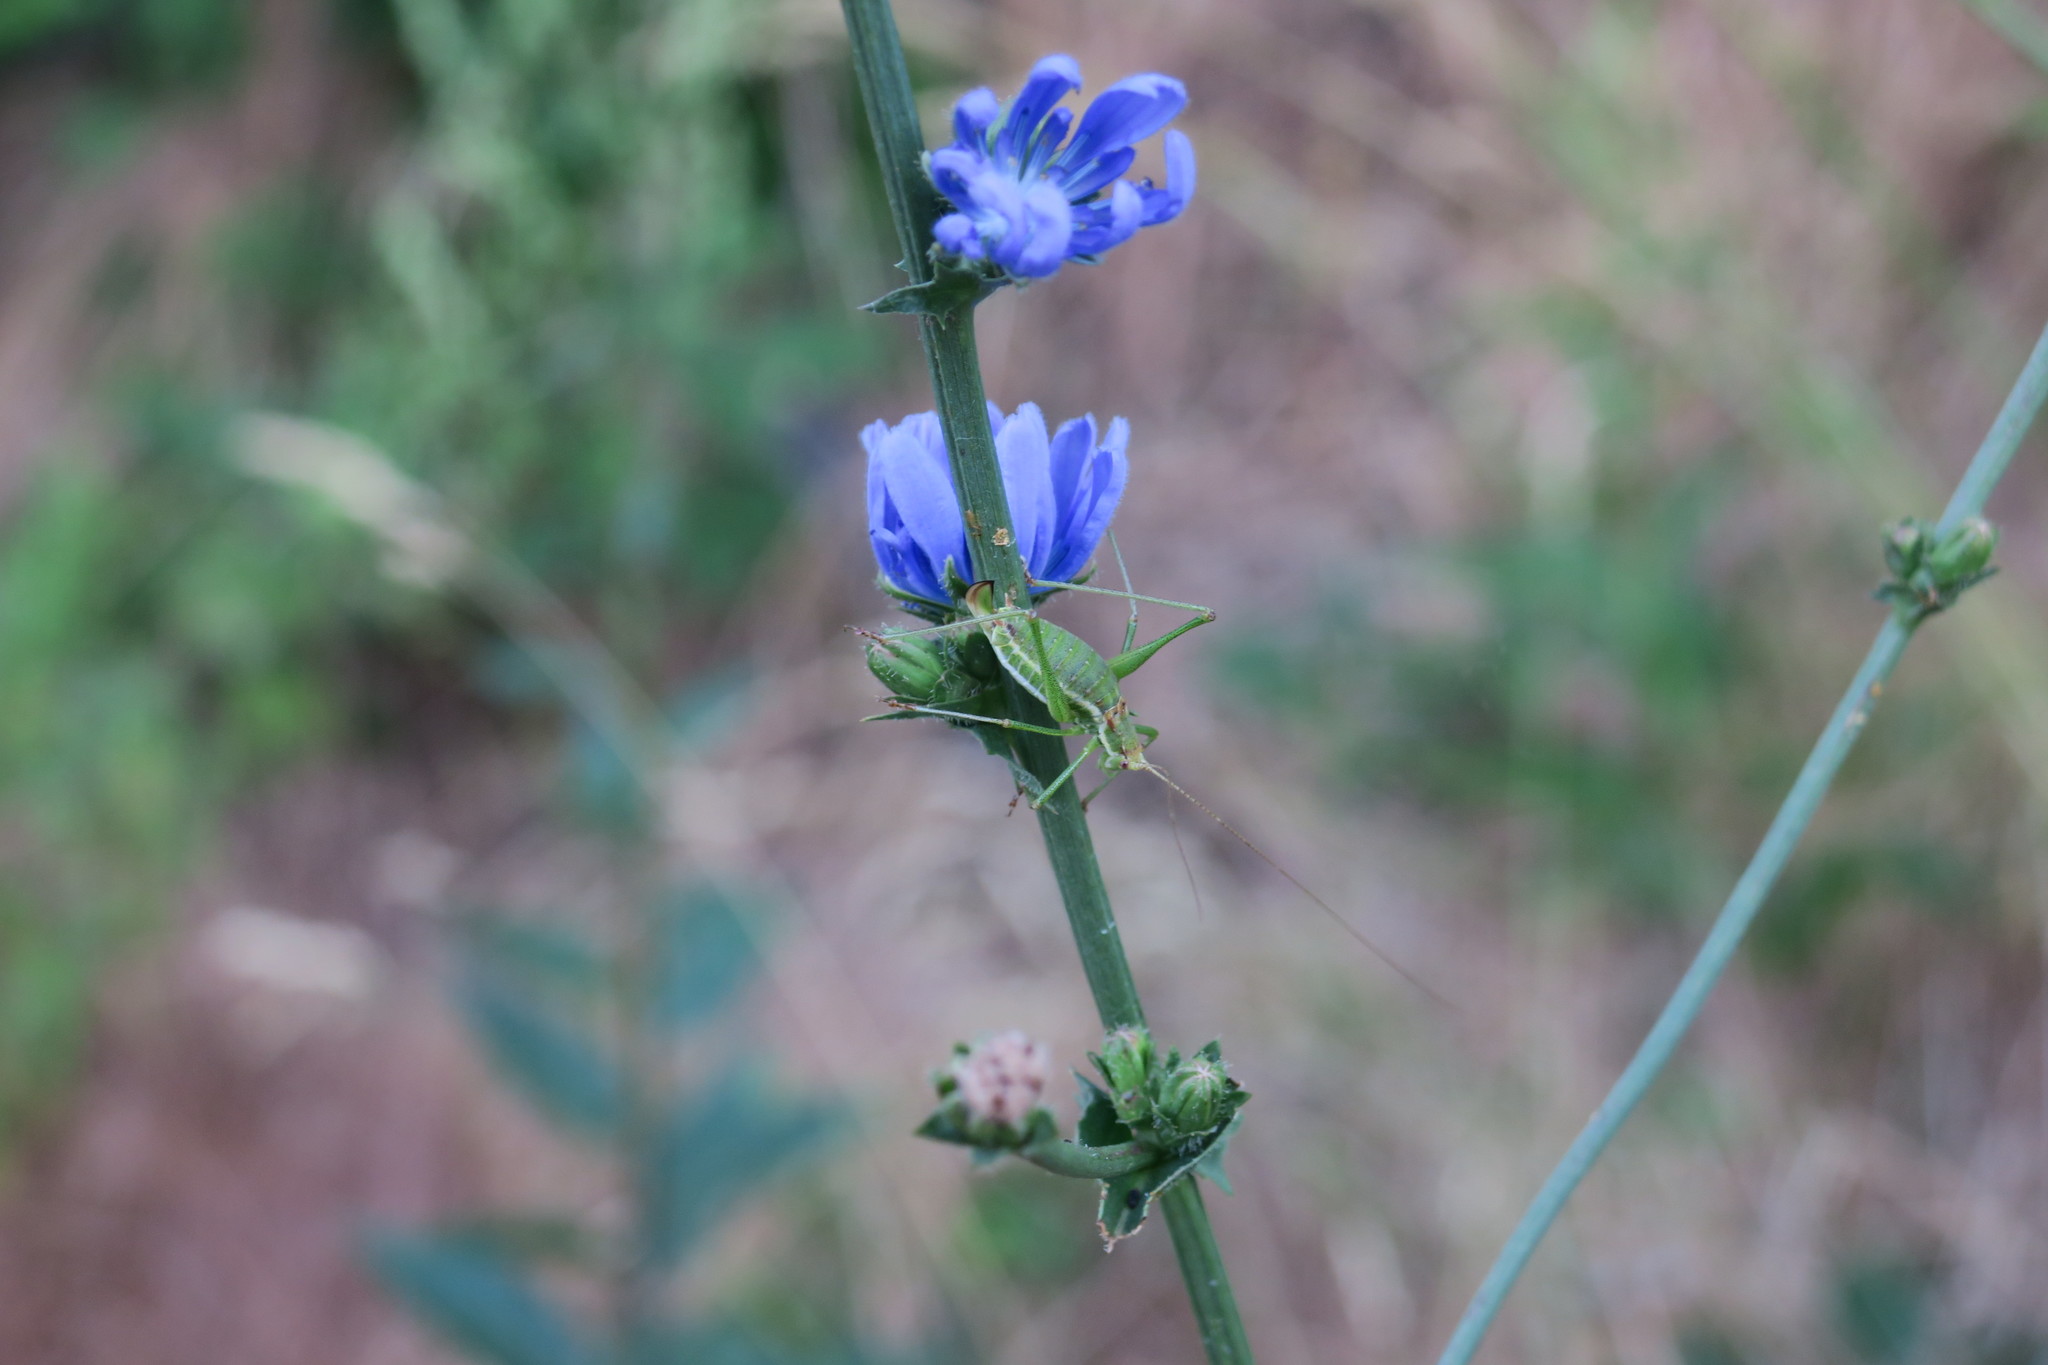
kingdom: Animalia
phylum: Arthropoda
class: Insecta
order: Orthoptera
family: Tettigoniidae
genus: Leptophyes
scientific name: Leptophyes albovittata
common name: Striped bush-cricket
